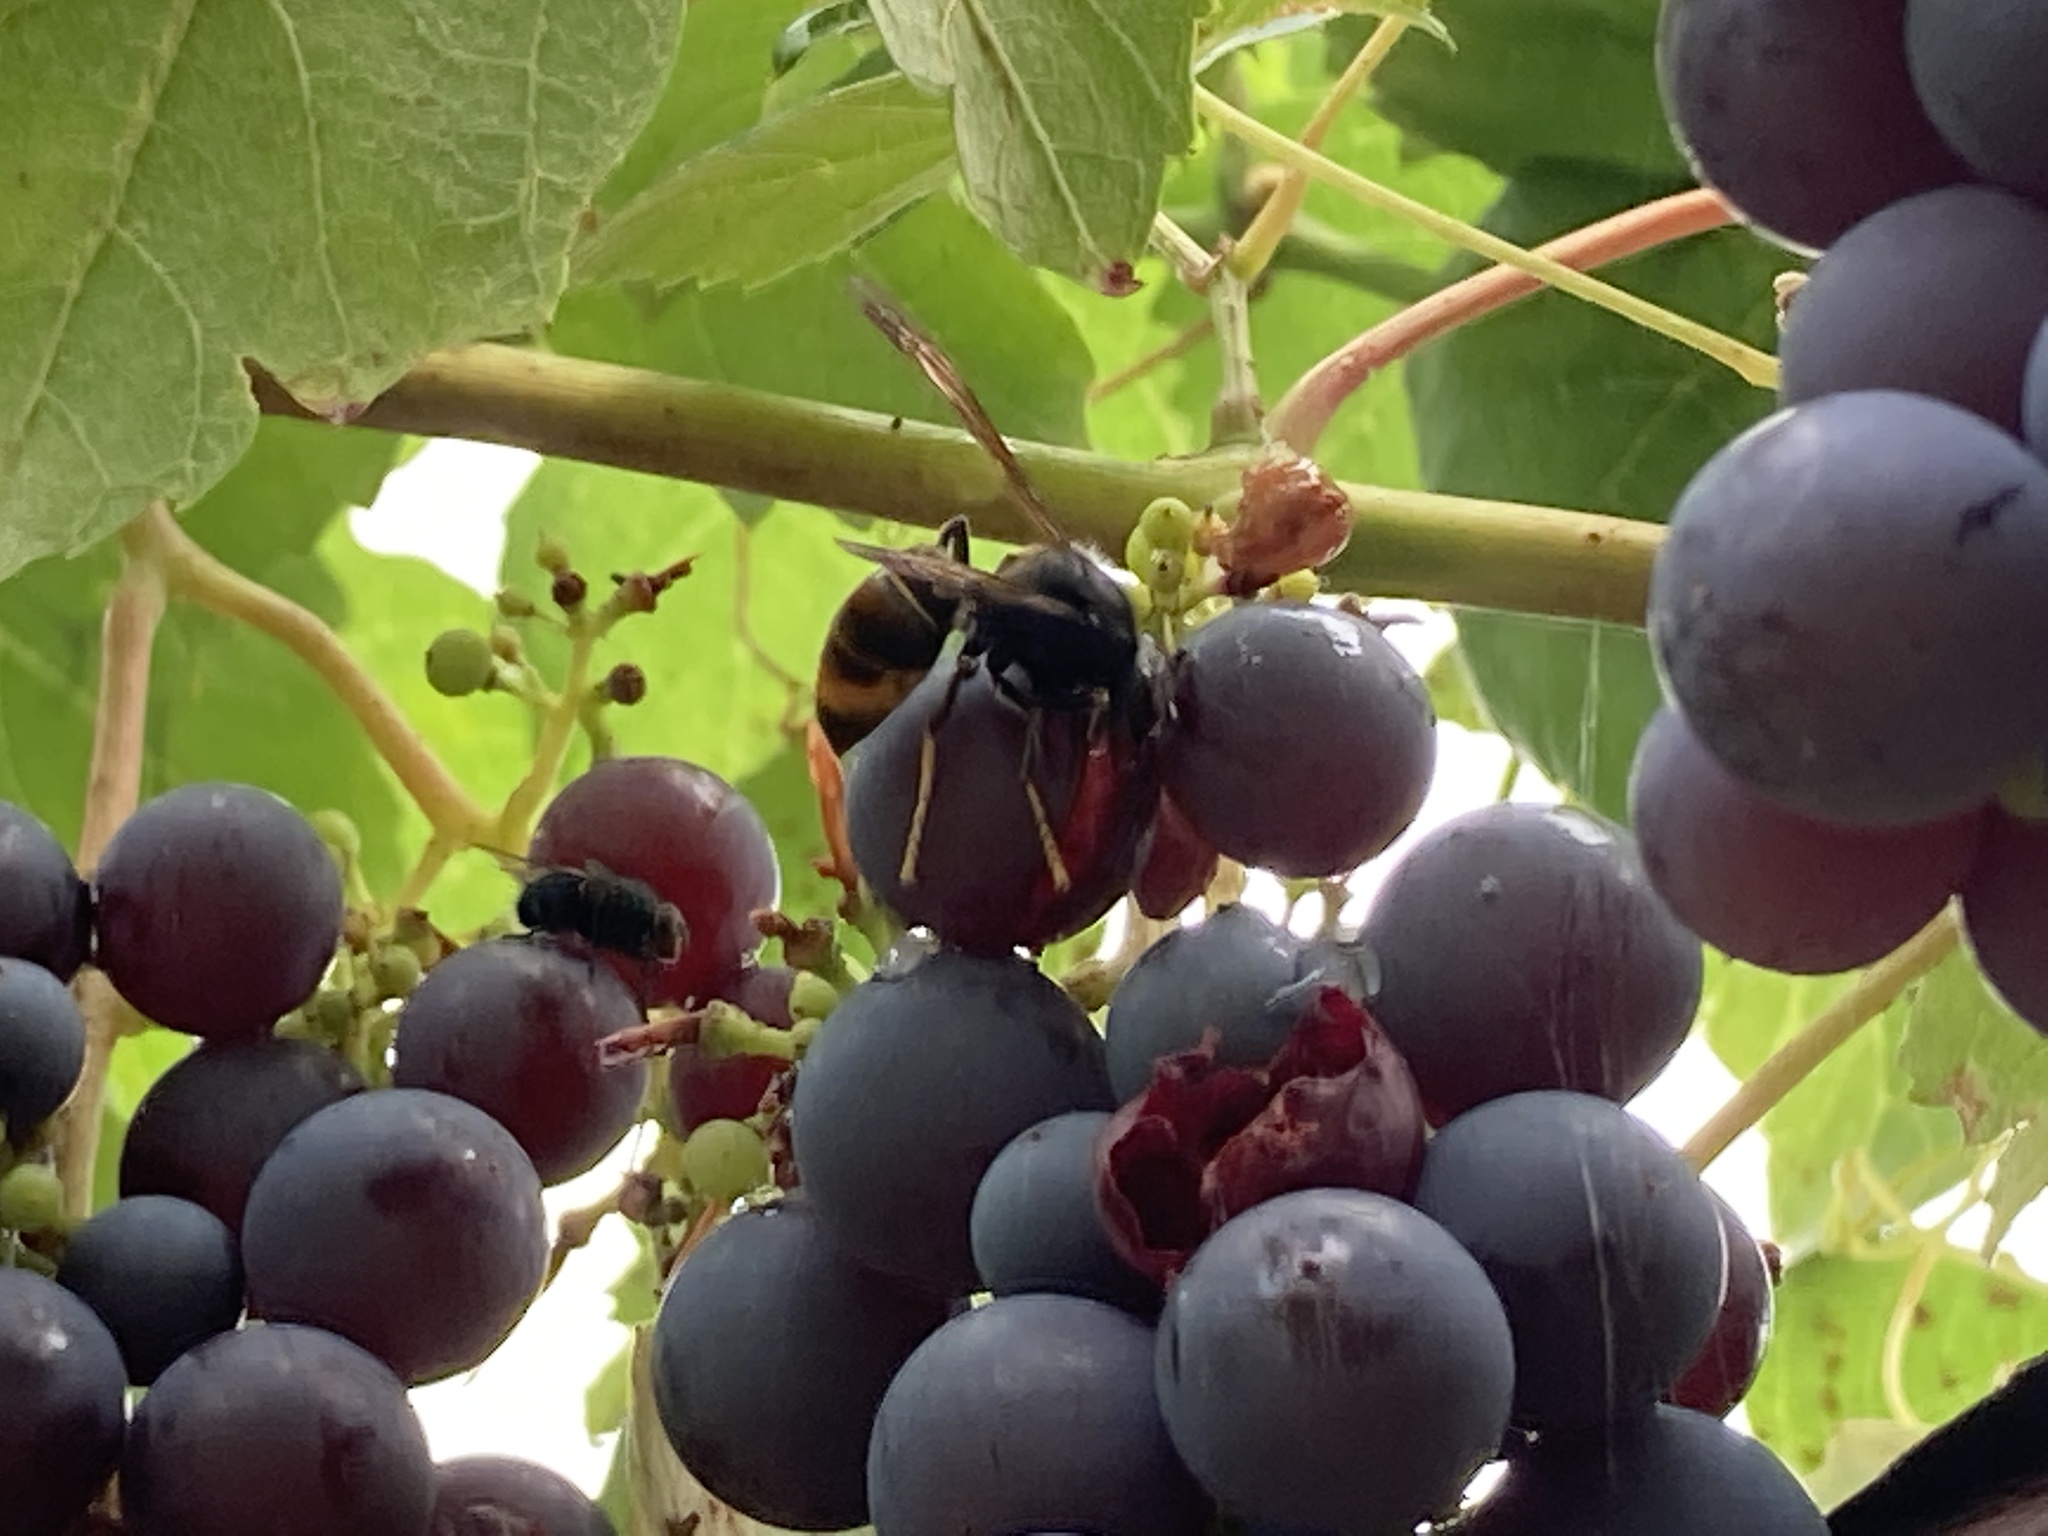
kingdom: Animalia
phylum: Arthropoda
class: Insecta
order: Hymenoptera
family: Vespidae
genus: Vespa
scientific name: Vespa velutina
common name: Asian hornet
